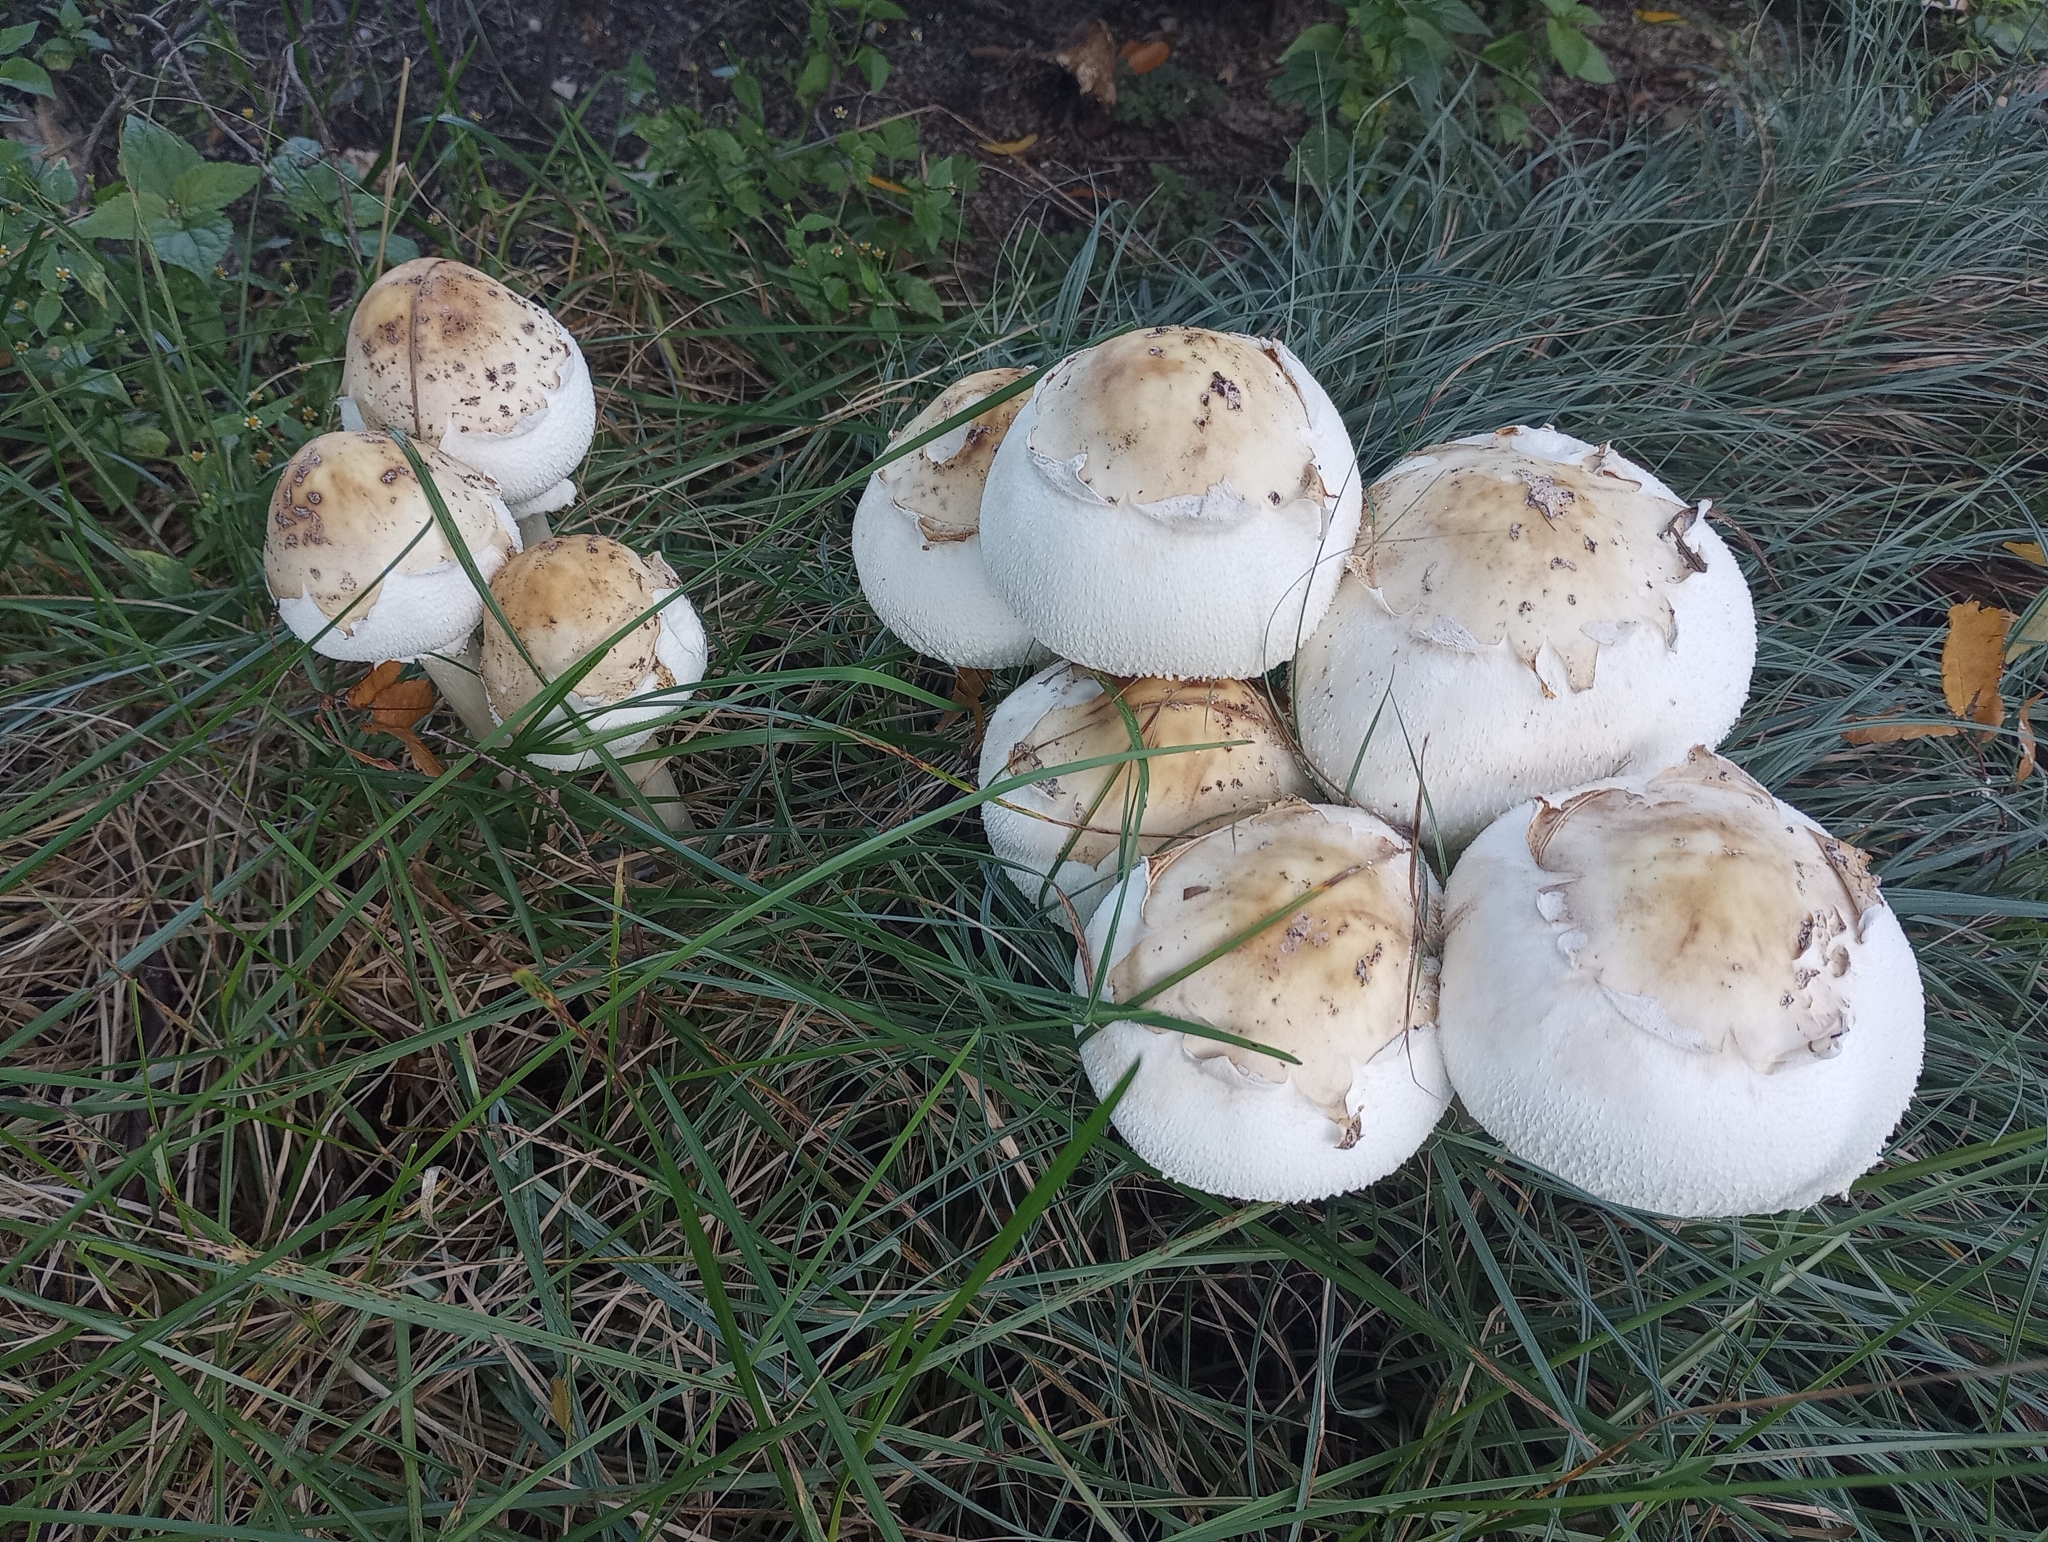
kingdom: Fungi
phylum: Basidiomycota
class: Agaricomycetes
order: Agaricales
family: Agaricaceae
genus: Chlorophyllum
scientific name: Chlorophyllum molybdites
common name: False parasol
